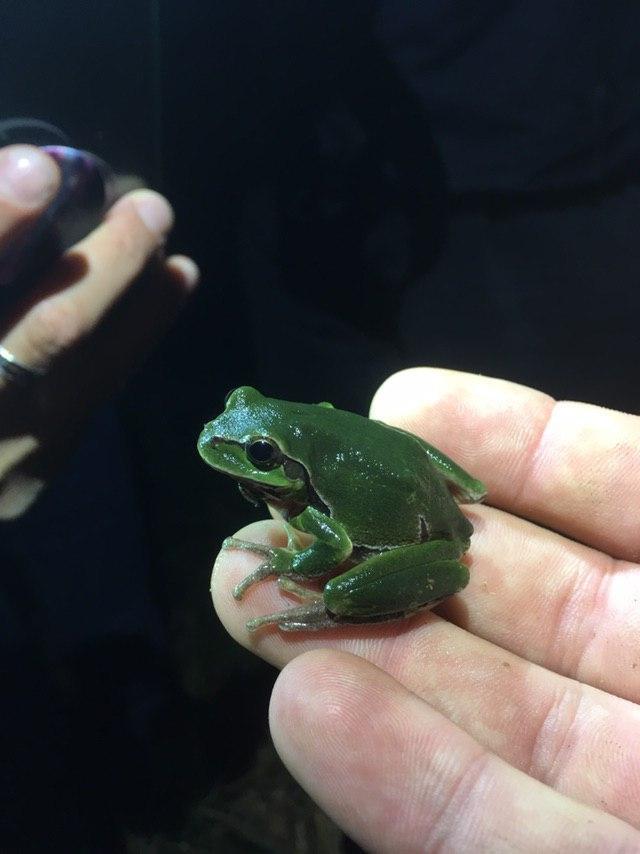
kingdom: Animalia
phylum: Chordata
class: Amphibia
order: Anura
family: Hylidae
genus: Hyla
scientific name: Hyla arborea
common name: Common tree frog
